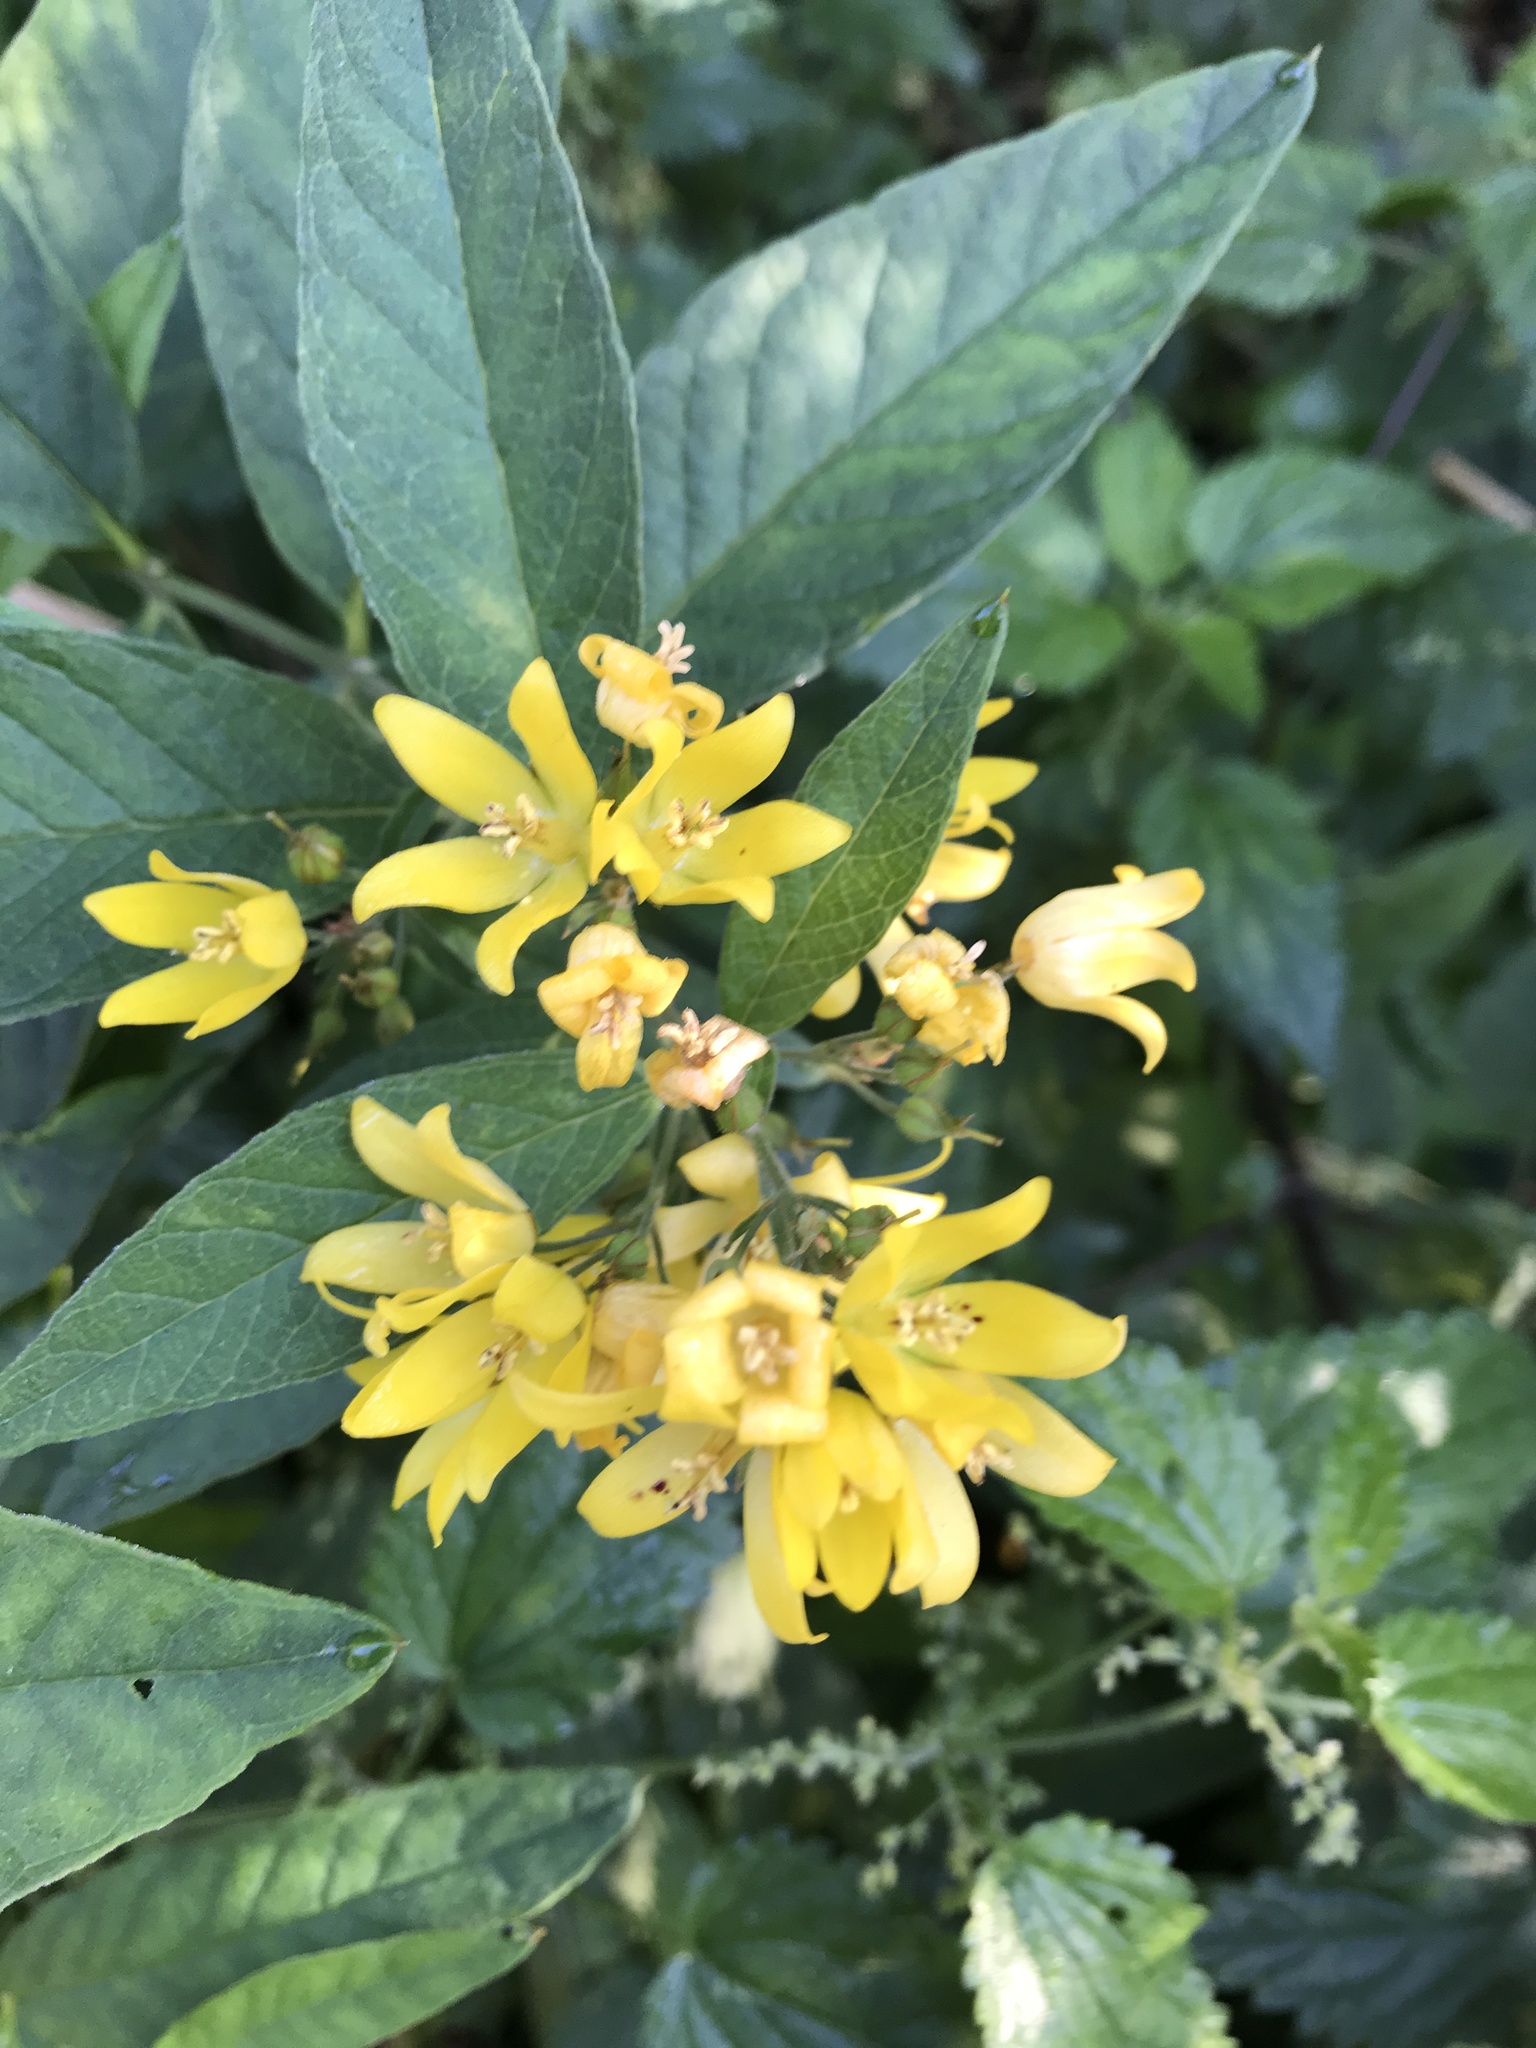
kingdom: Plantae
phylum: Tracheophyta
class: Magnoliopsida
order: Ericales
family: Primulaceae
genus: Lysimachia
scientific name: Lysimachia vulgaris
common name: Yellow loosestrife
